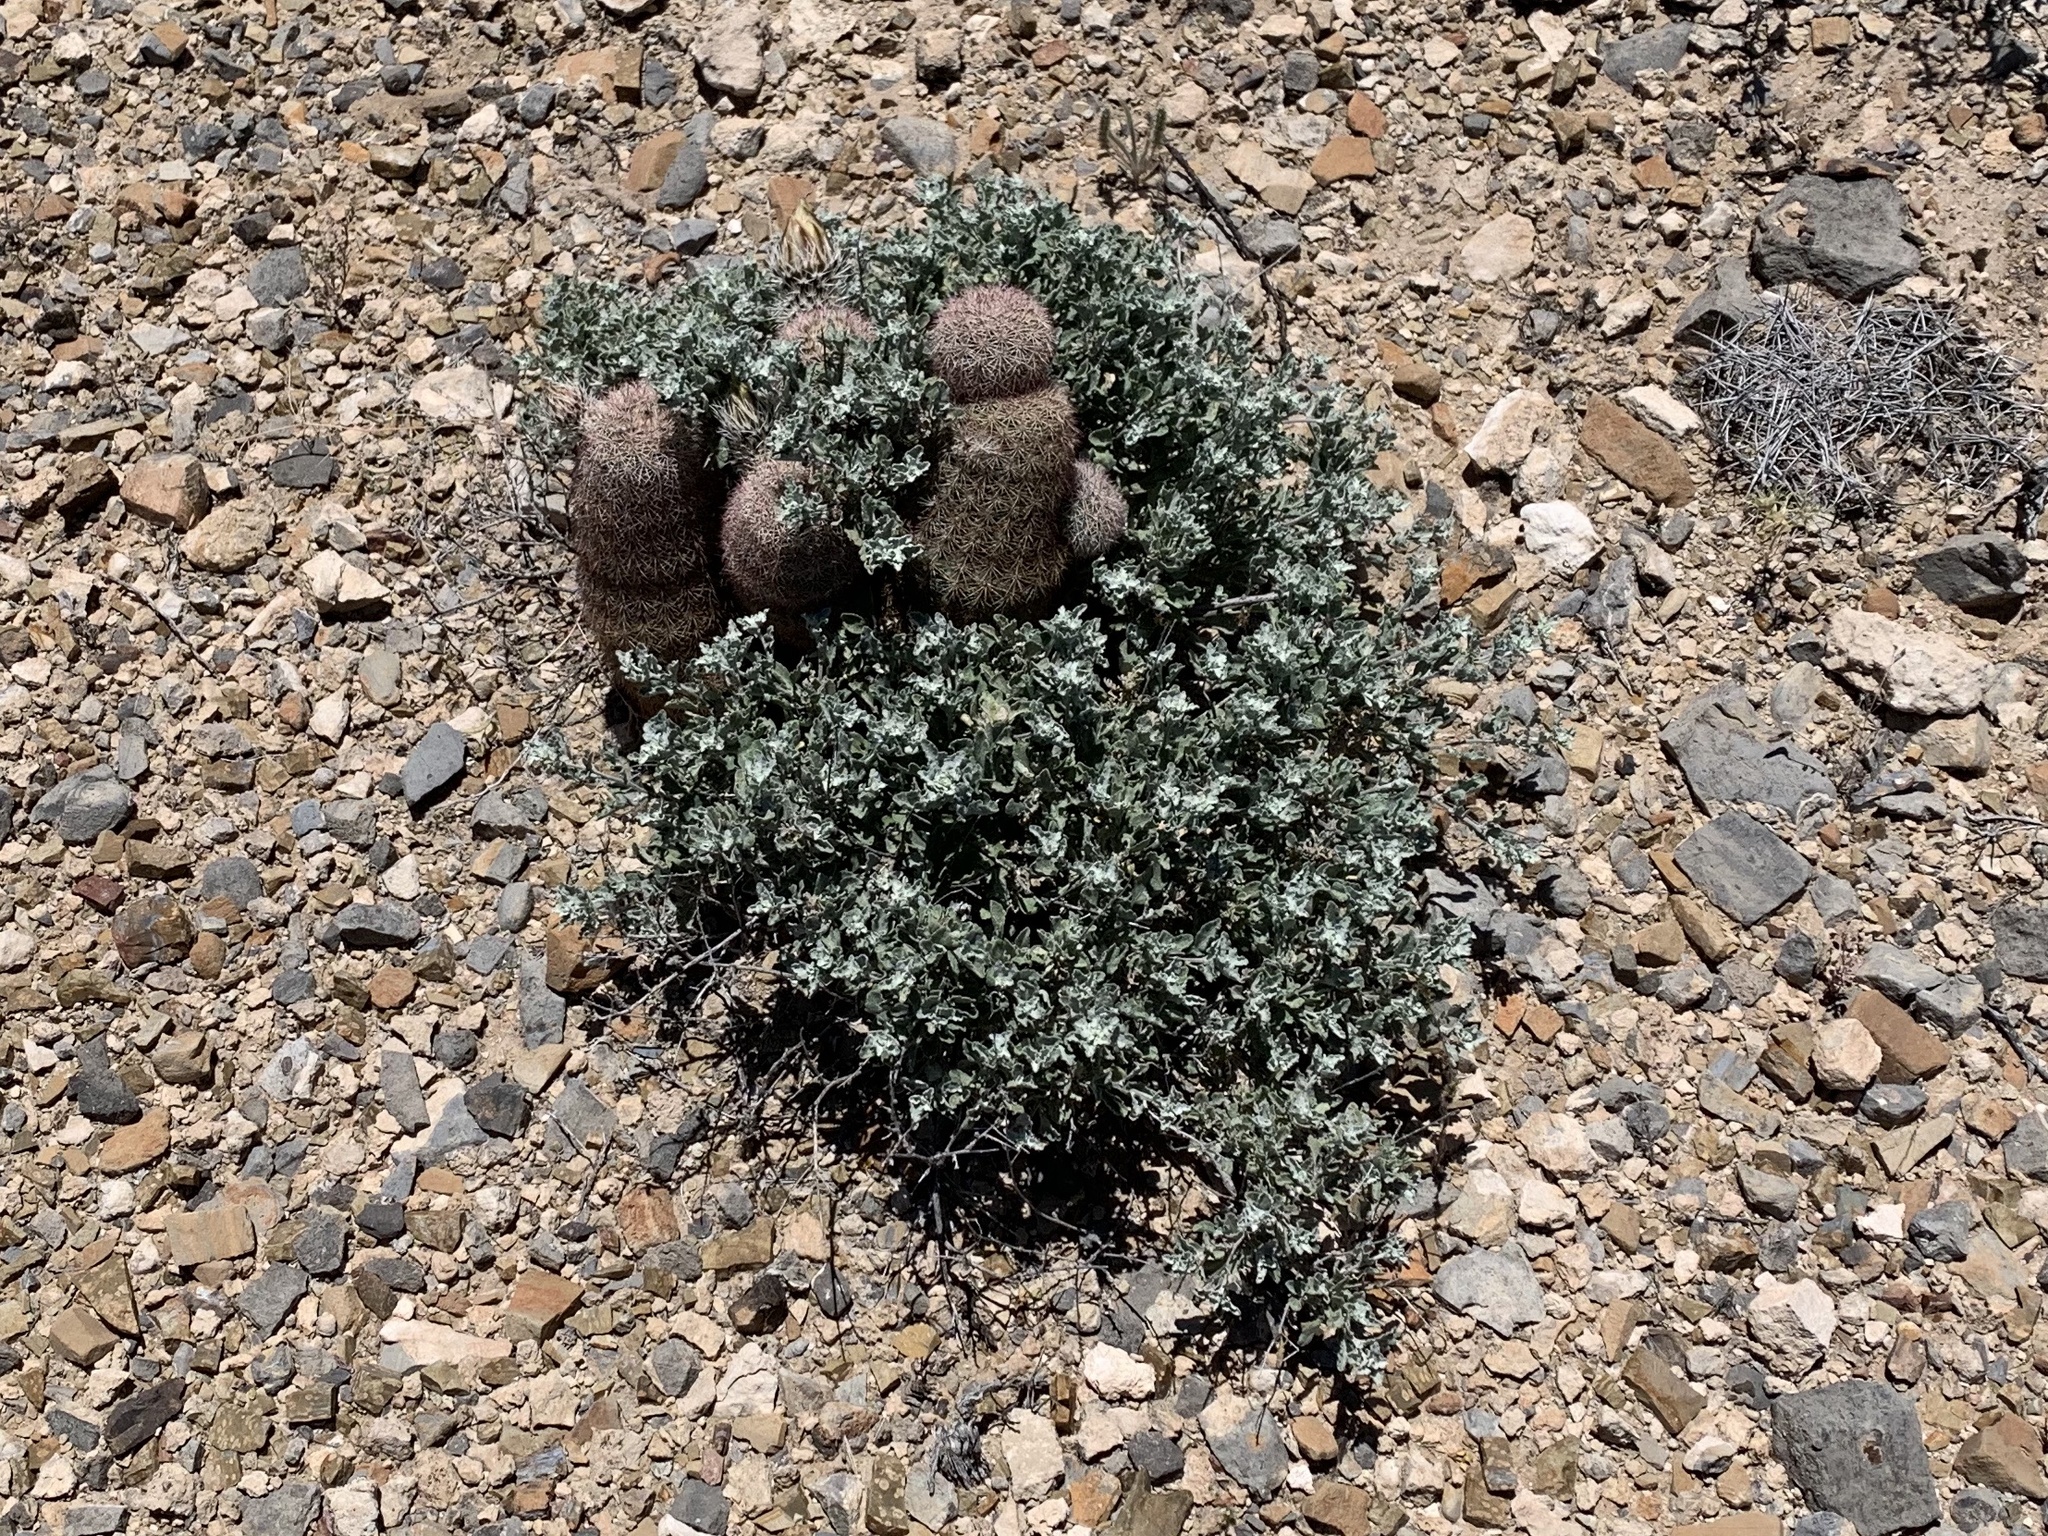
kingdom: Plantae
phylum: Tracheophyta
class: Magnoliopsida
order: Asterales
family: Asteraceae
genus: Parthenium
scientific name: Parthenium incanum
